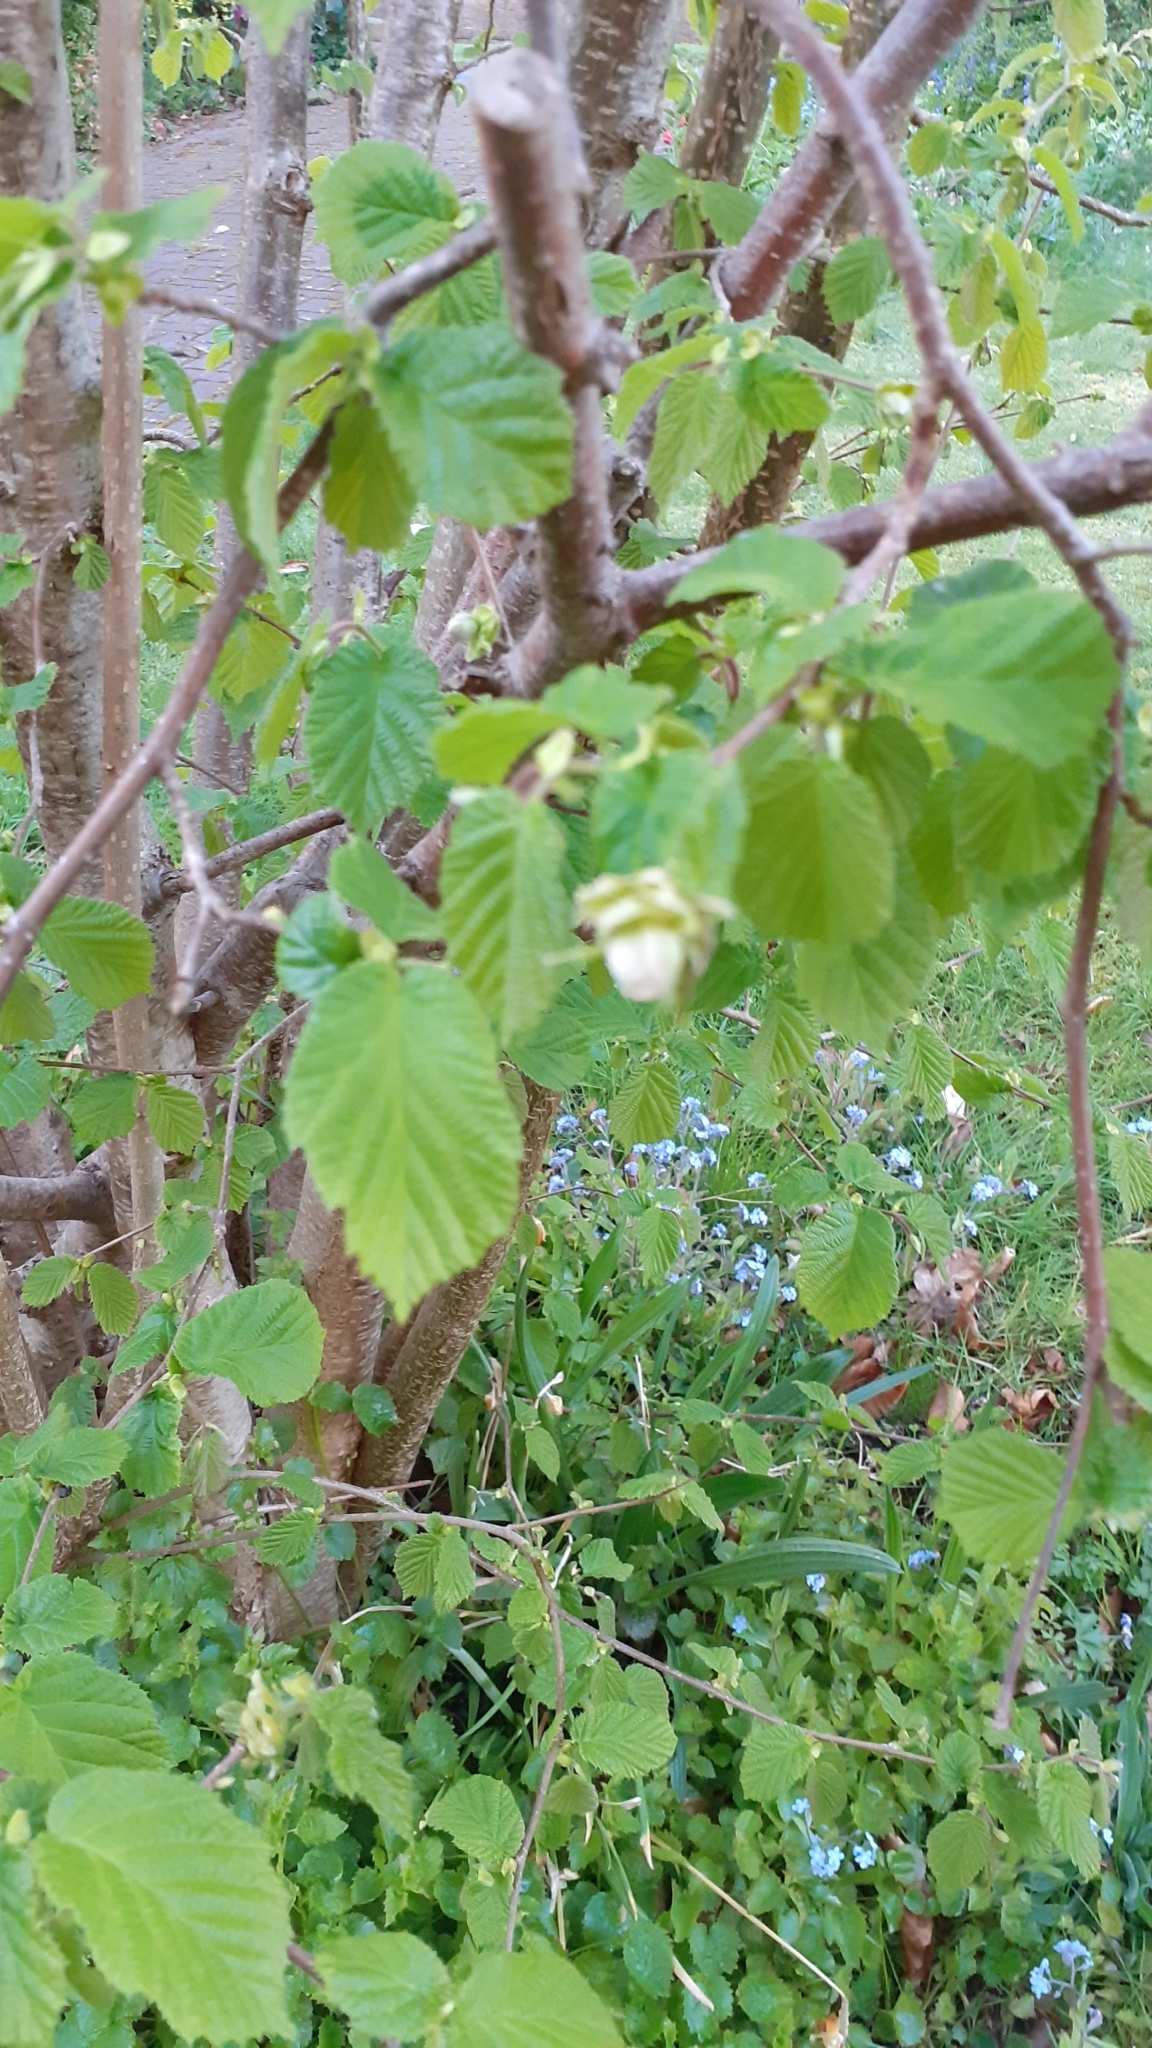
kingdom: Plantae
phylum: Tracheophyta
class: Magnoliopsida
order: Fagales
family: Betulaceae
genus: Corylus
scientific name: Corylus avellana
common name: European hazel
